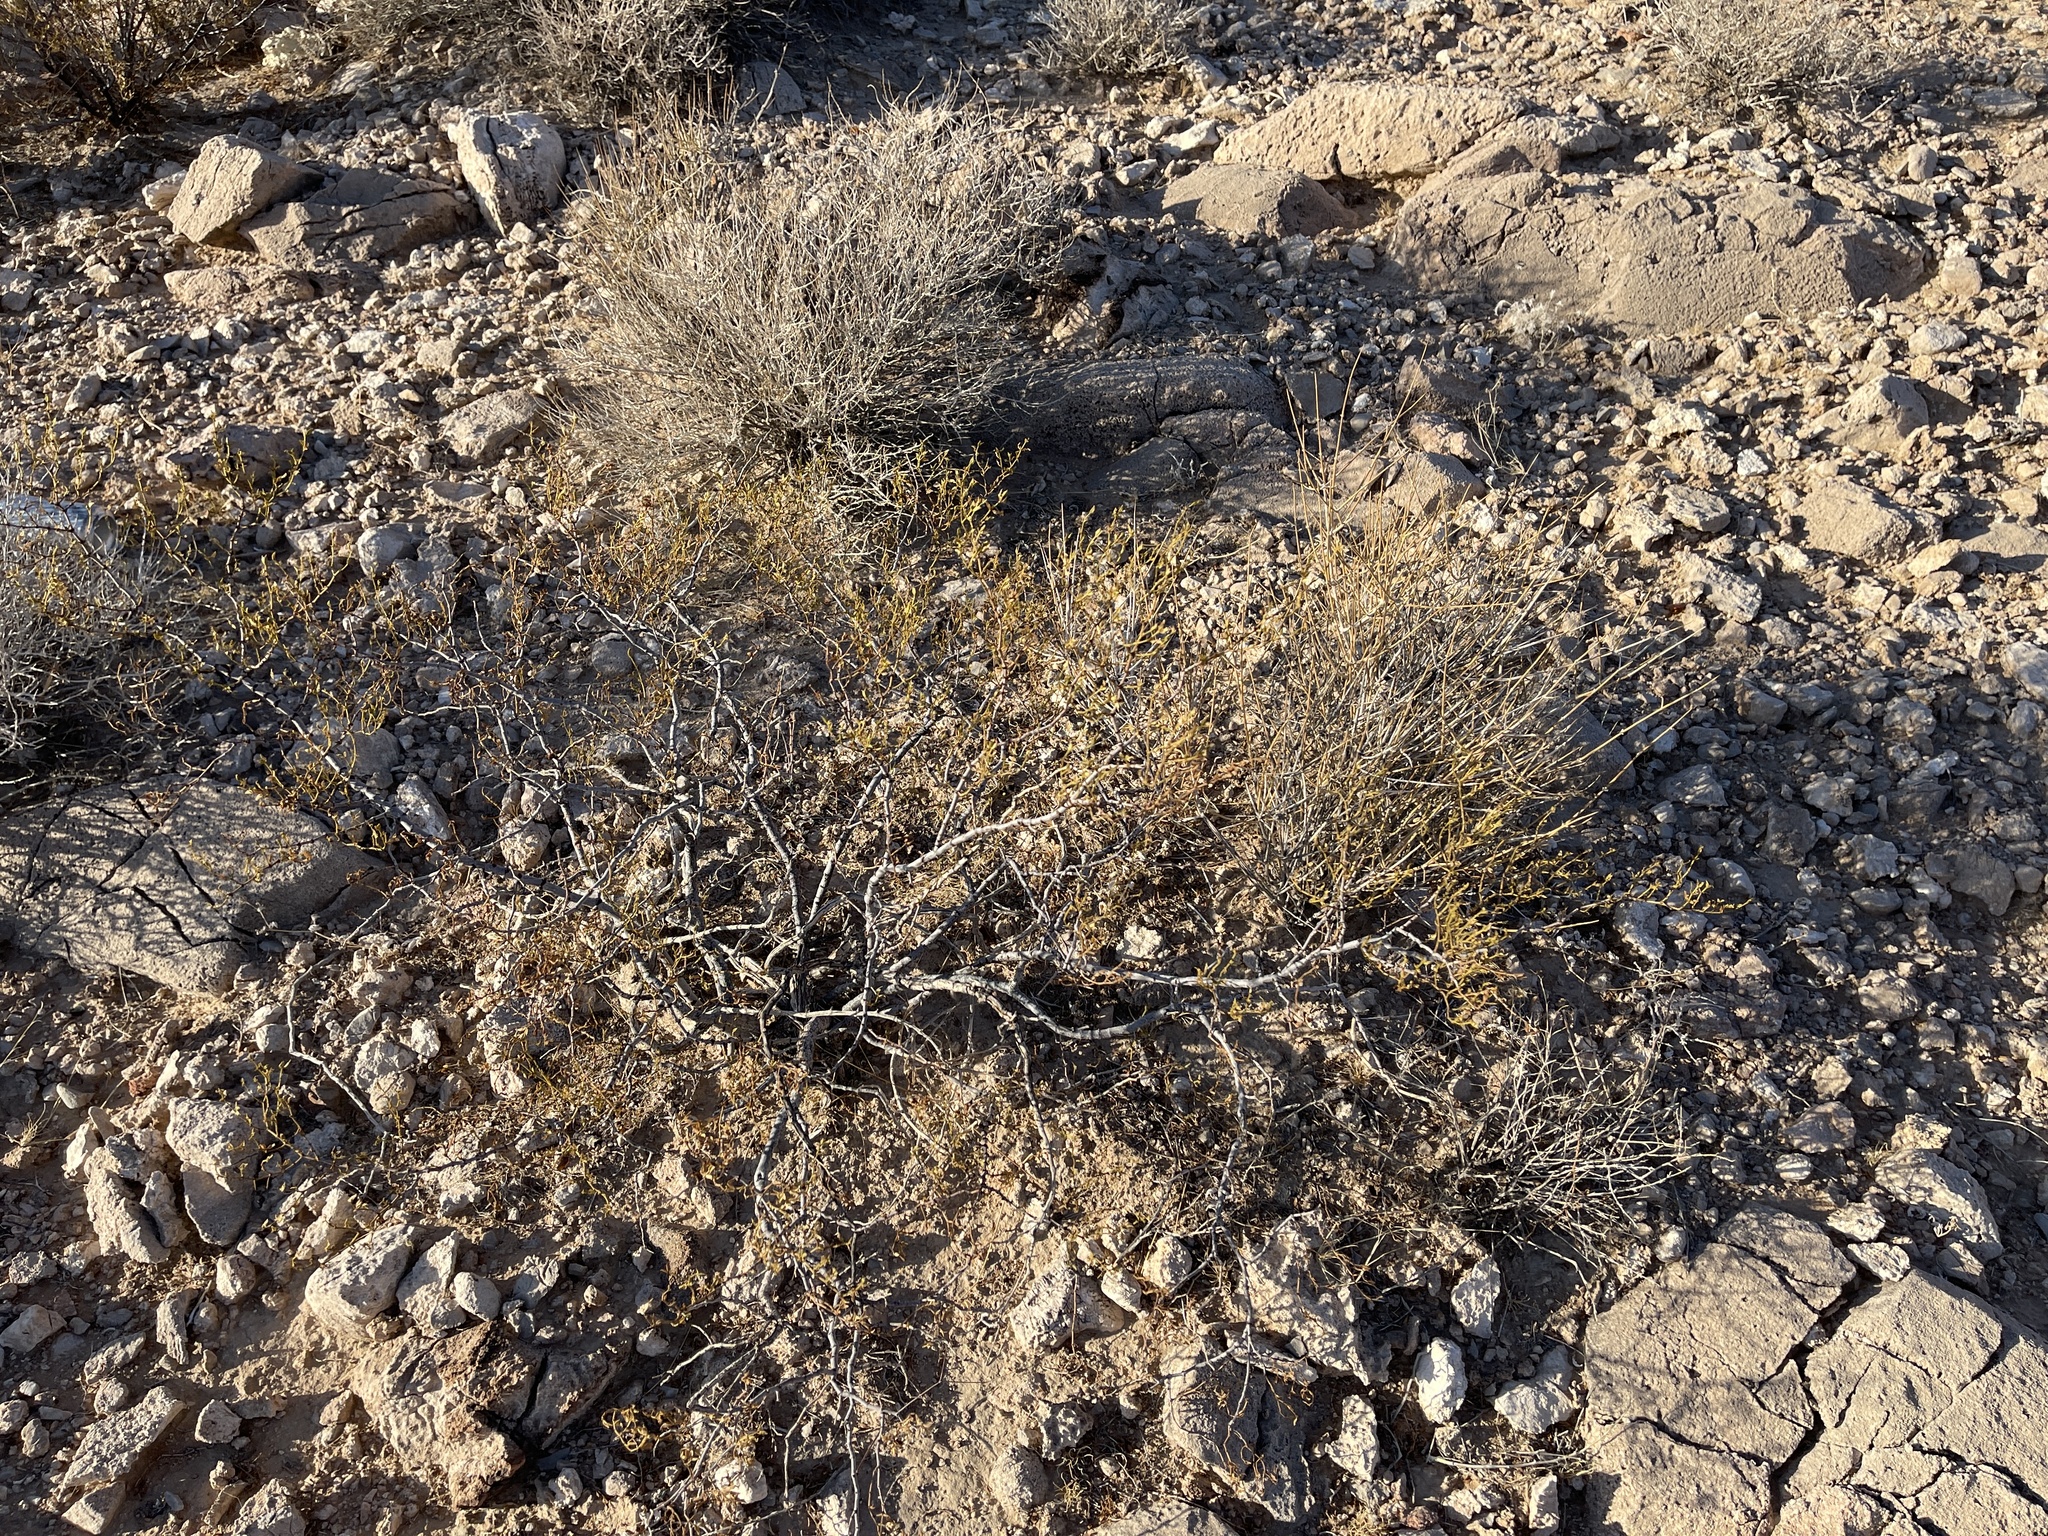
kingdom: Plantae
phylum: Tracheophyta
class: Magnoliopsida
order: Zygophyllales
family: Zygophyllaceae
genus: Larrea
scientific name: Larrea tridentata
